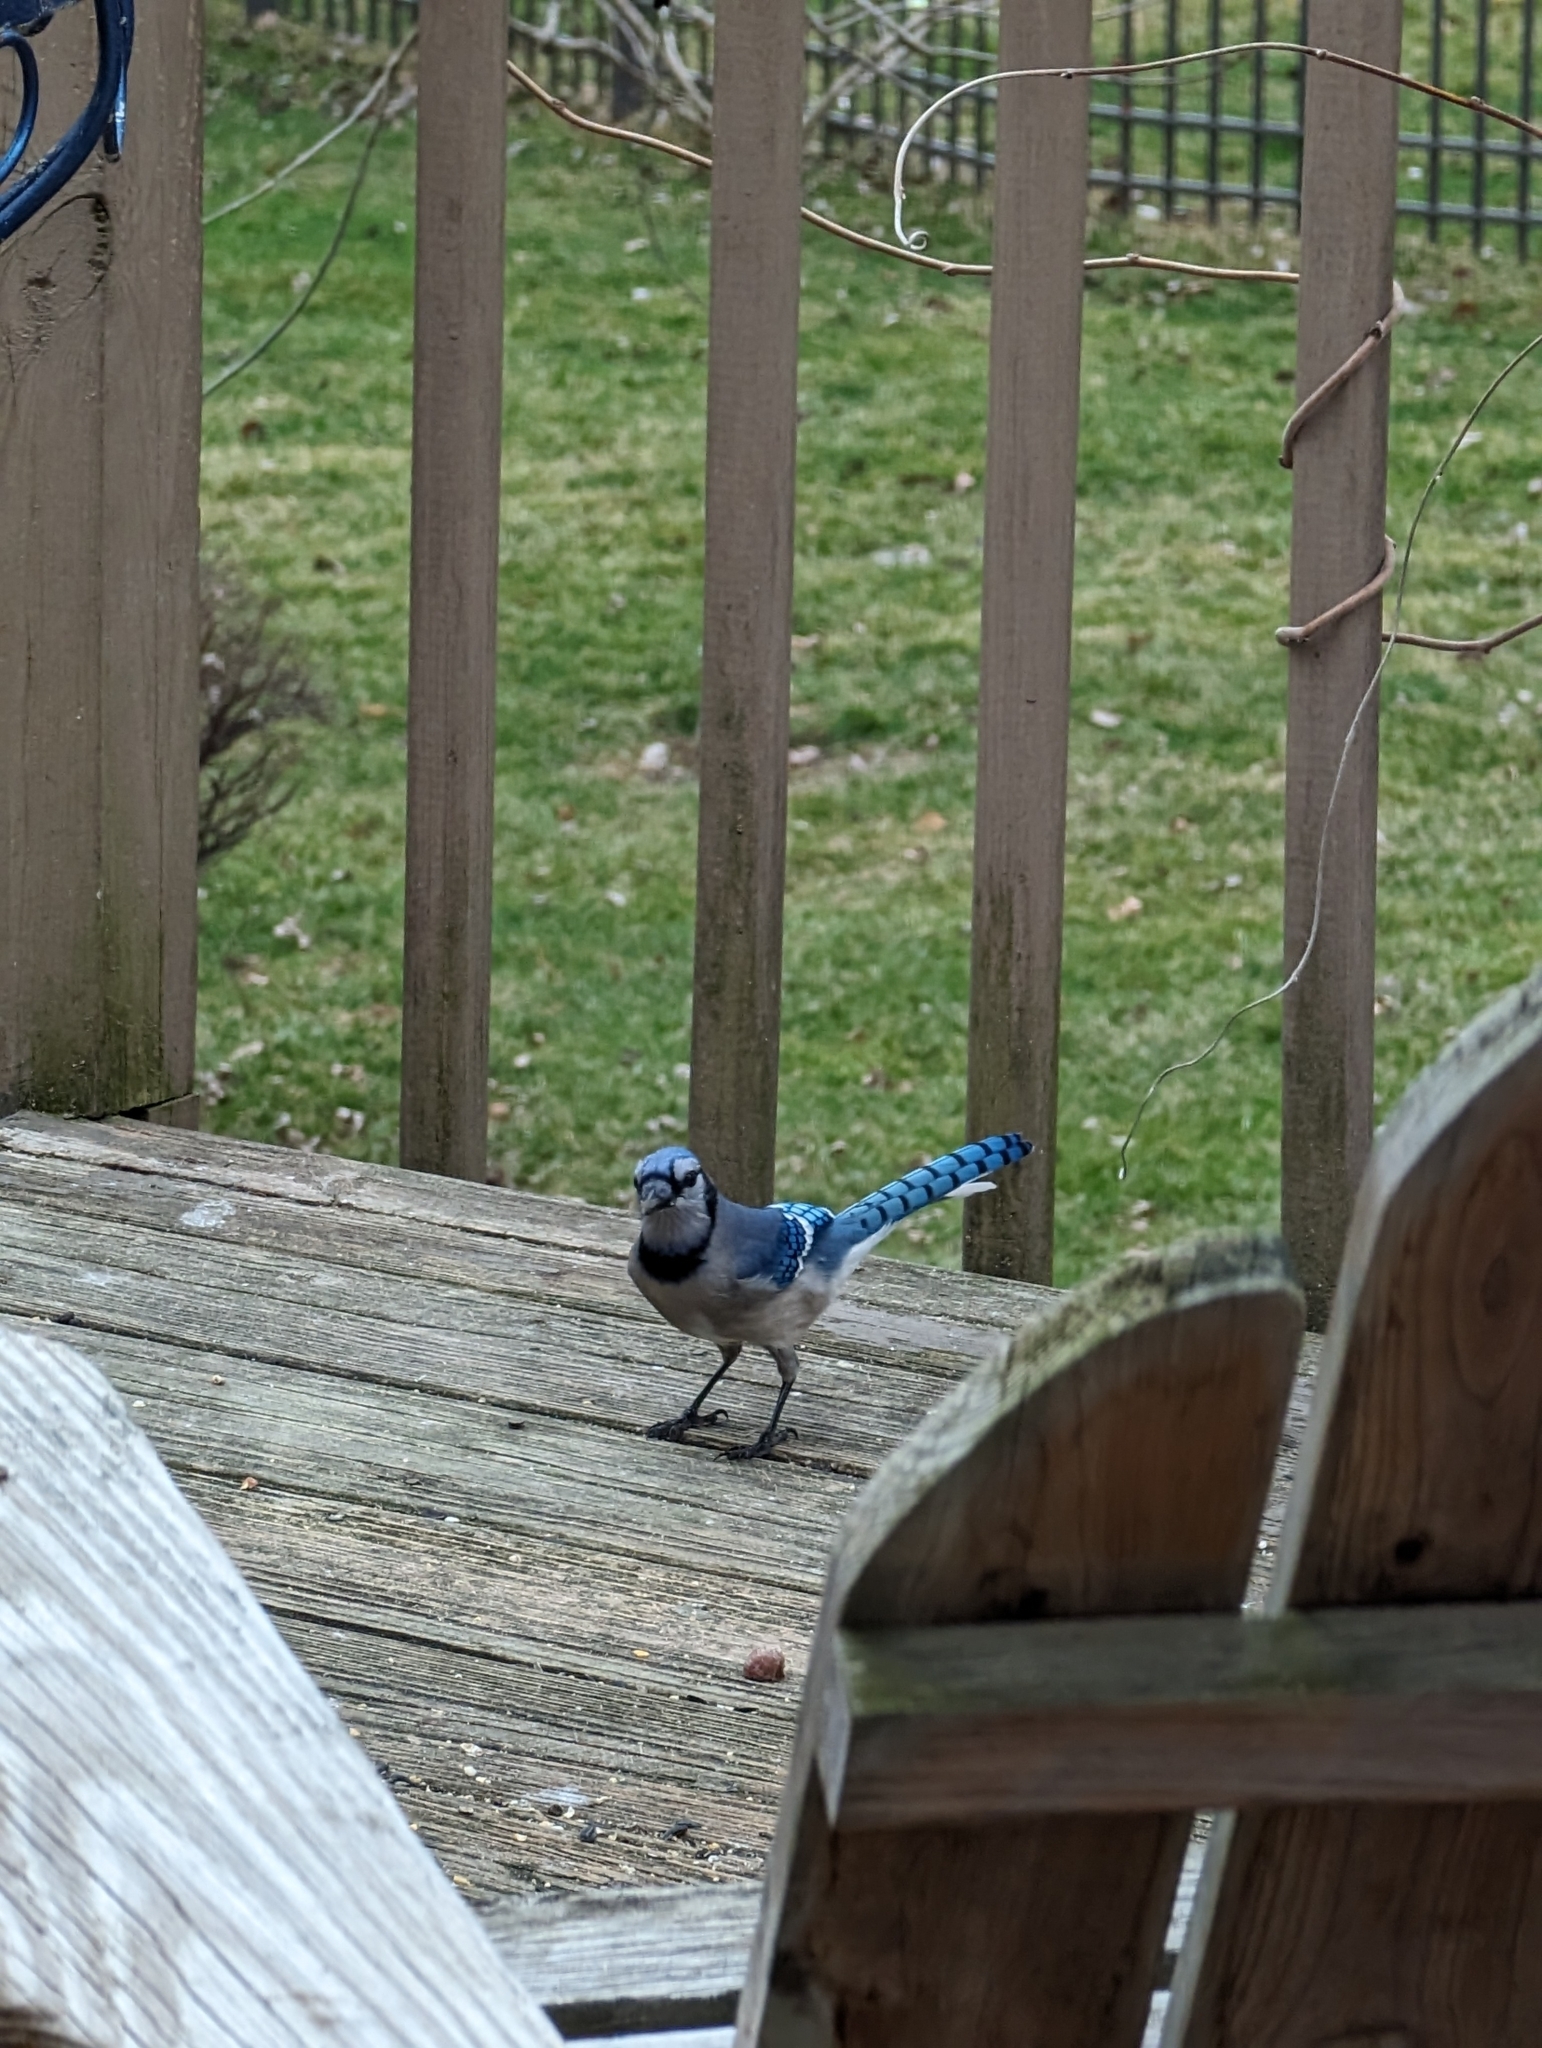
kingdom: Animalia
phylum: Chordata
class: Aves
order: Passeriformes
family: Corvidae
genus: Cyanocitta
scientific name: Cyanocitta cristata
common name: Blue jay
